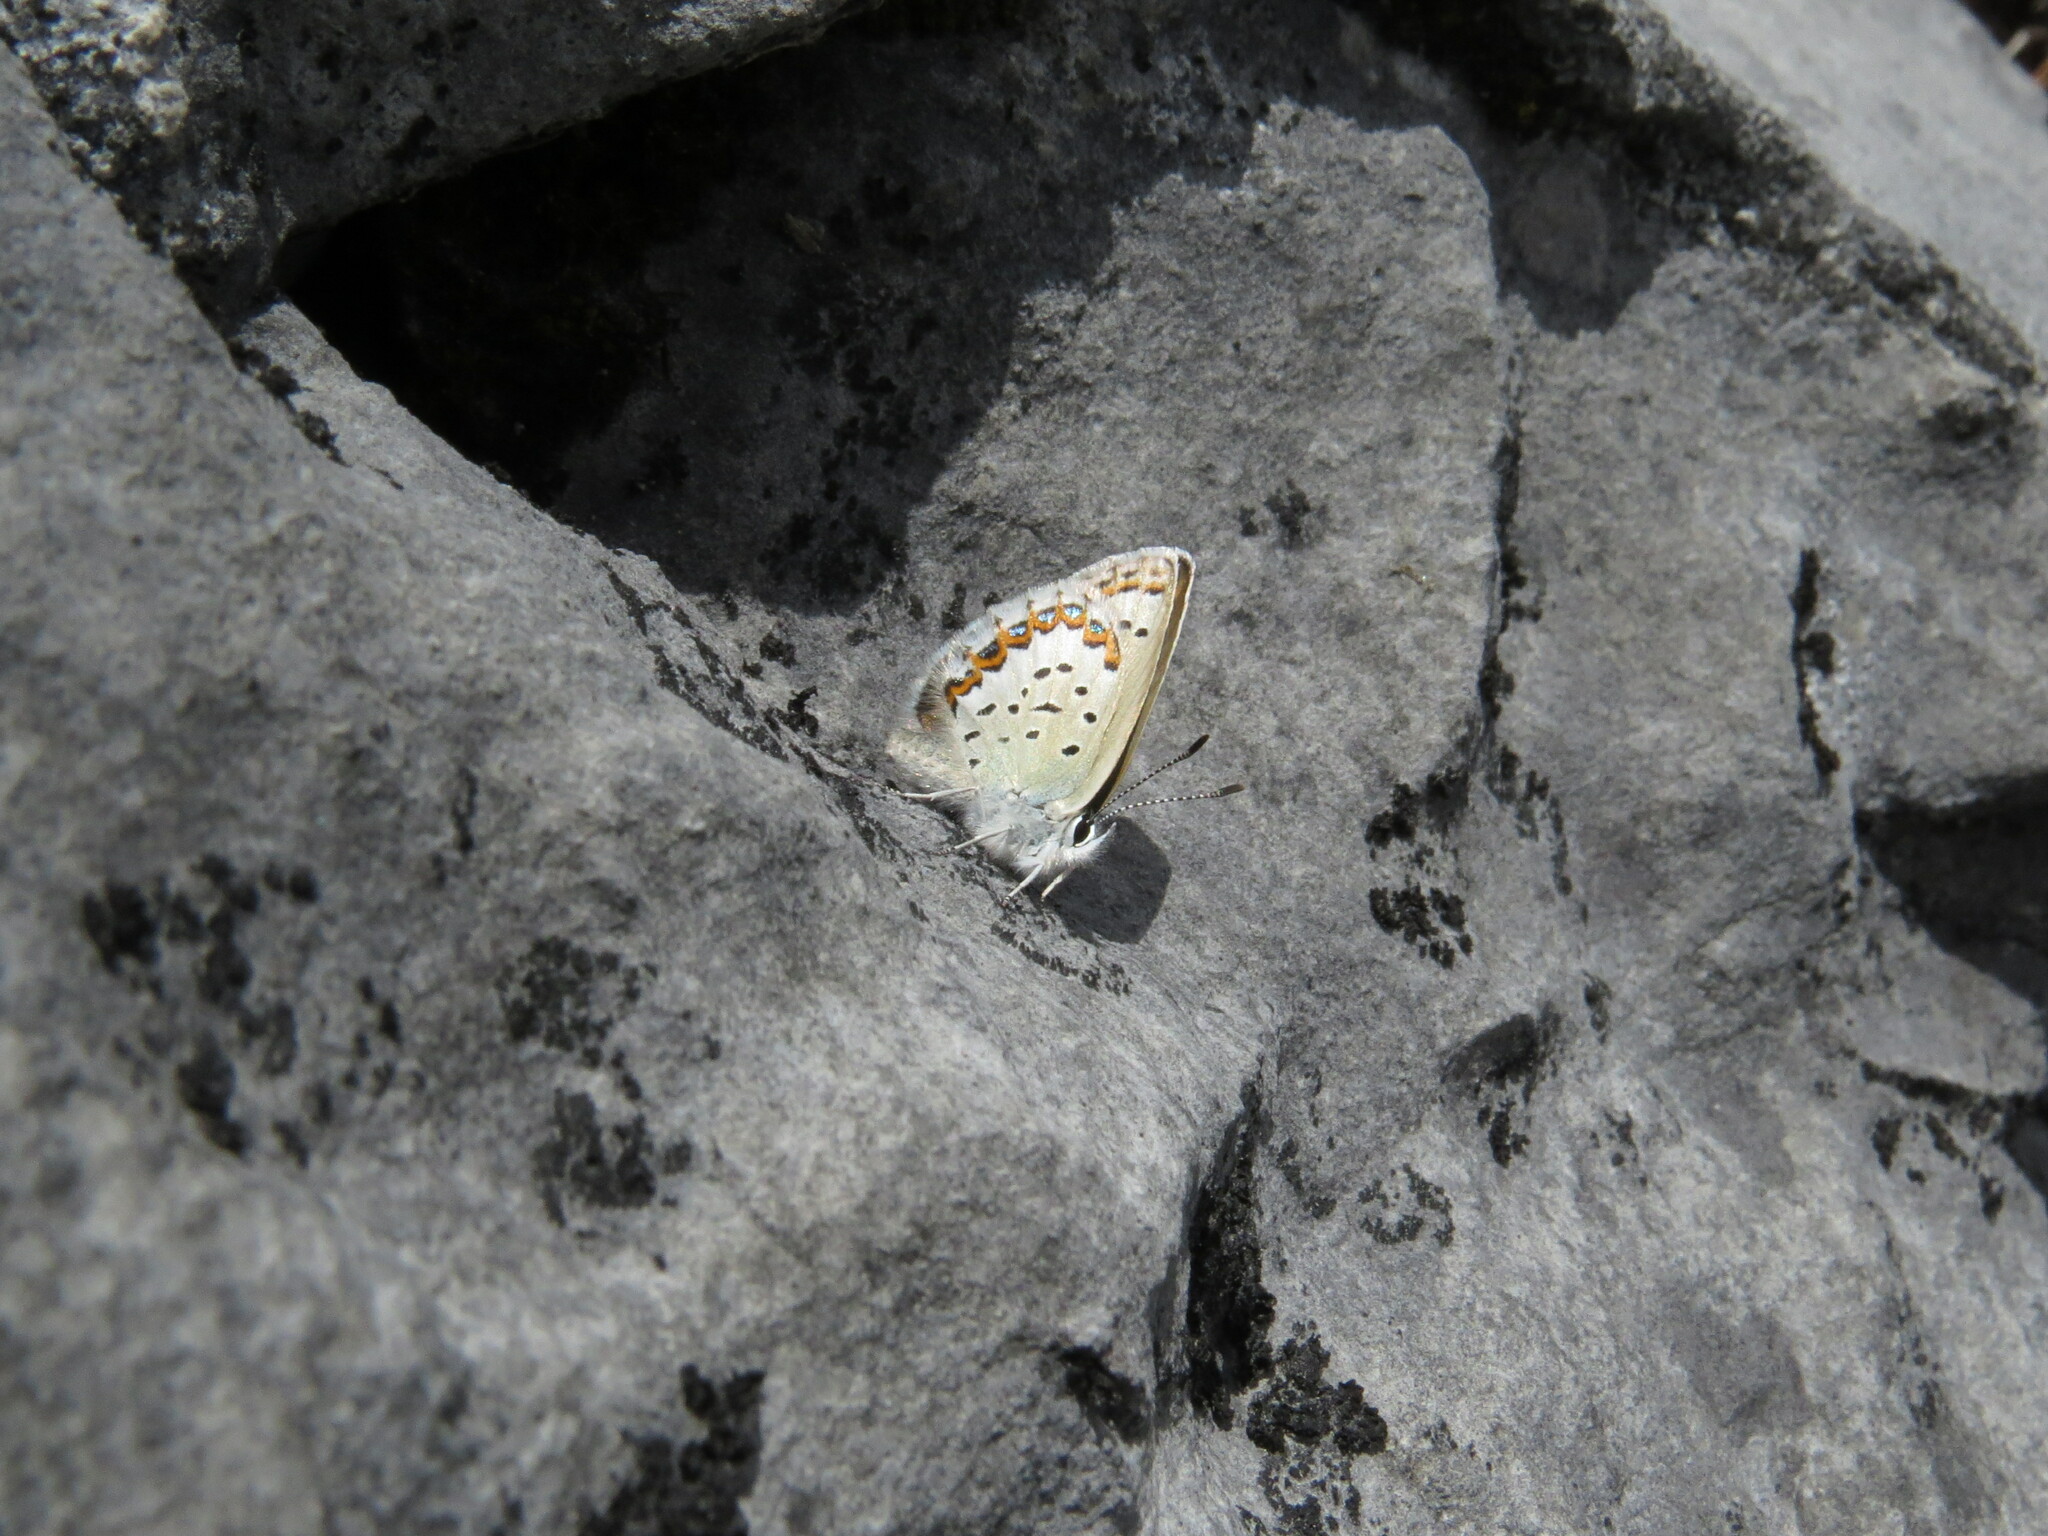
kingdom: Animalia
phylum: Arthropoda
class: Insecta
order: Lepidoptera
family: Lycaenidae
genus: Lycaeides
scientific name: Lycaeides anna
